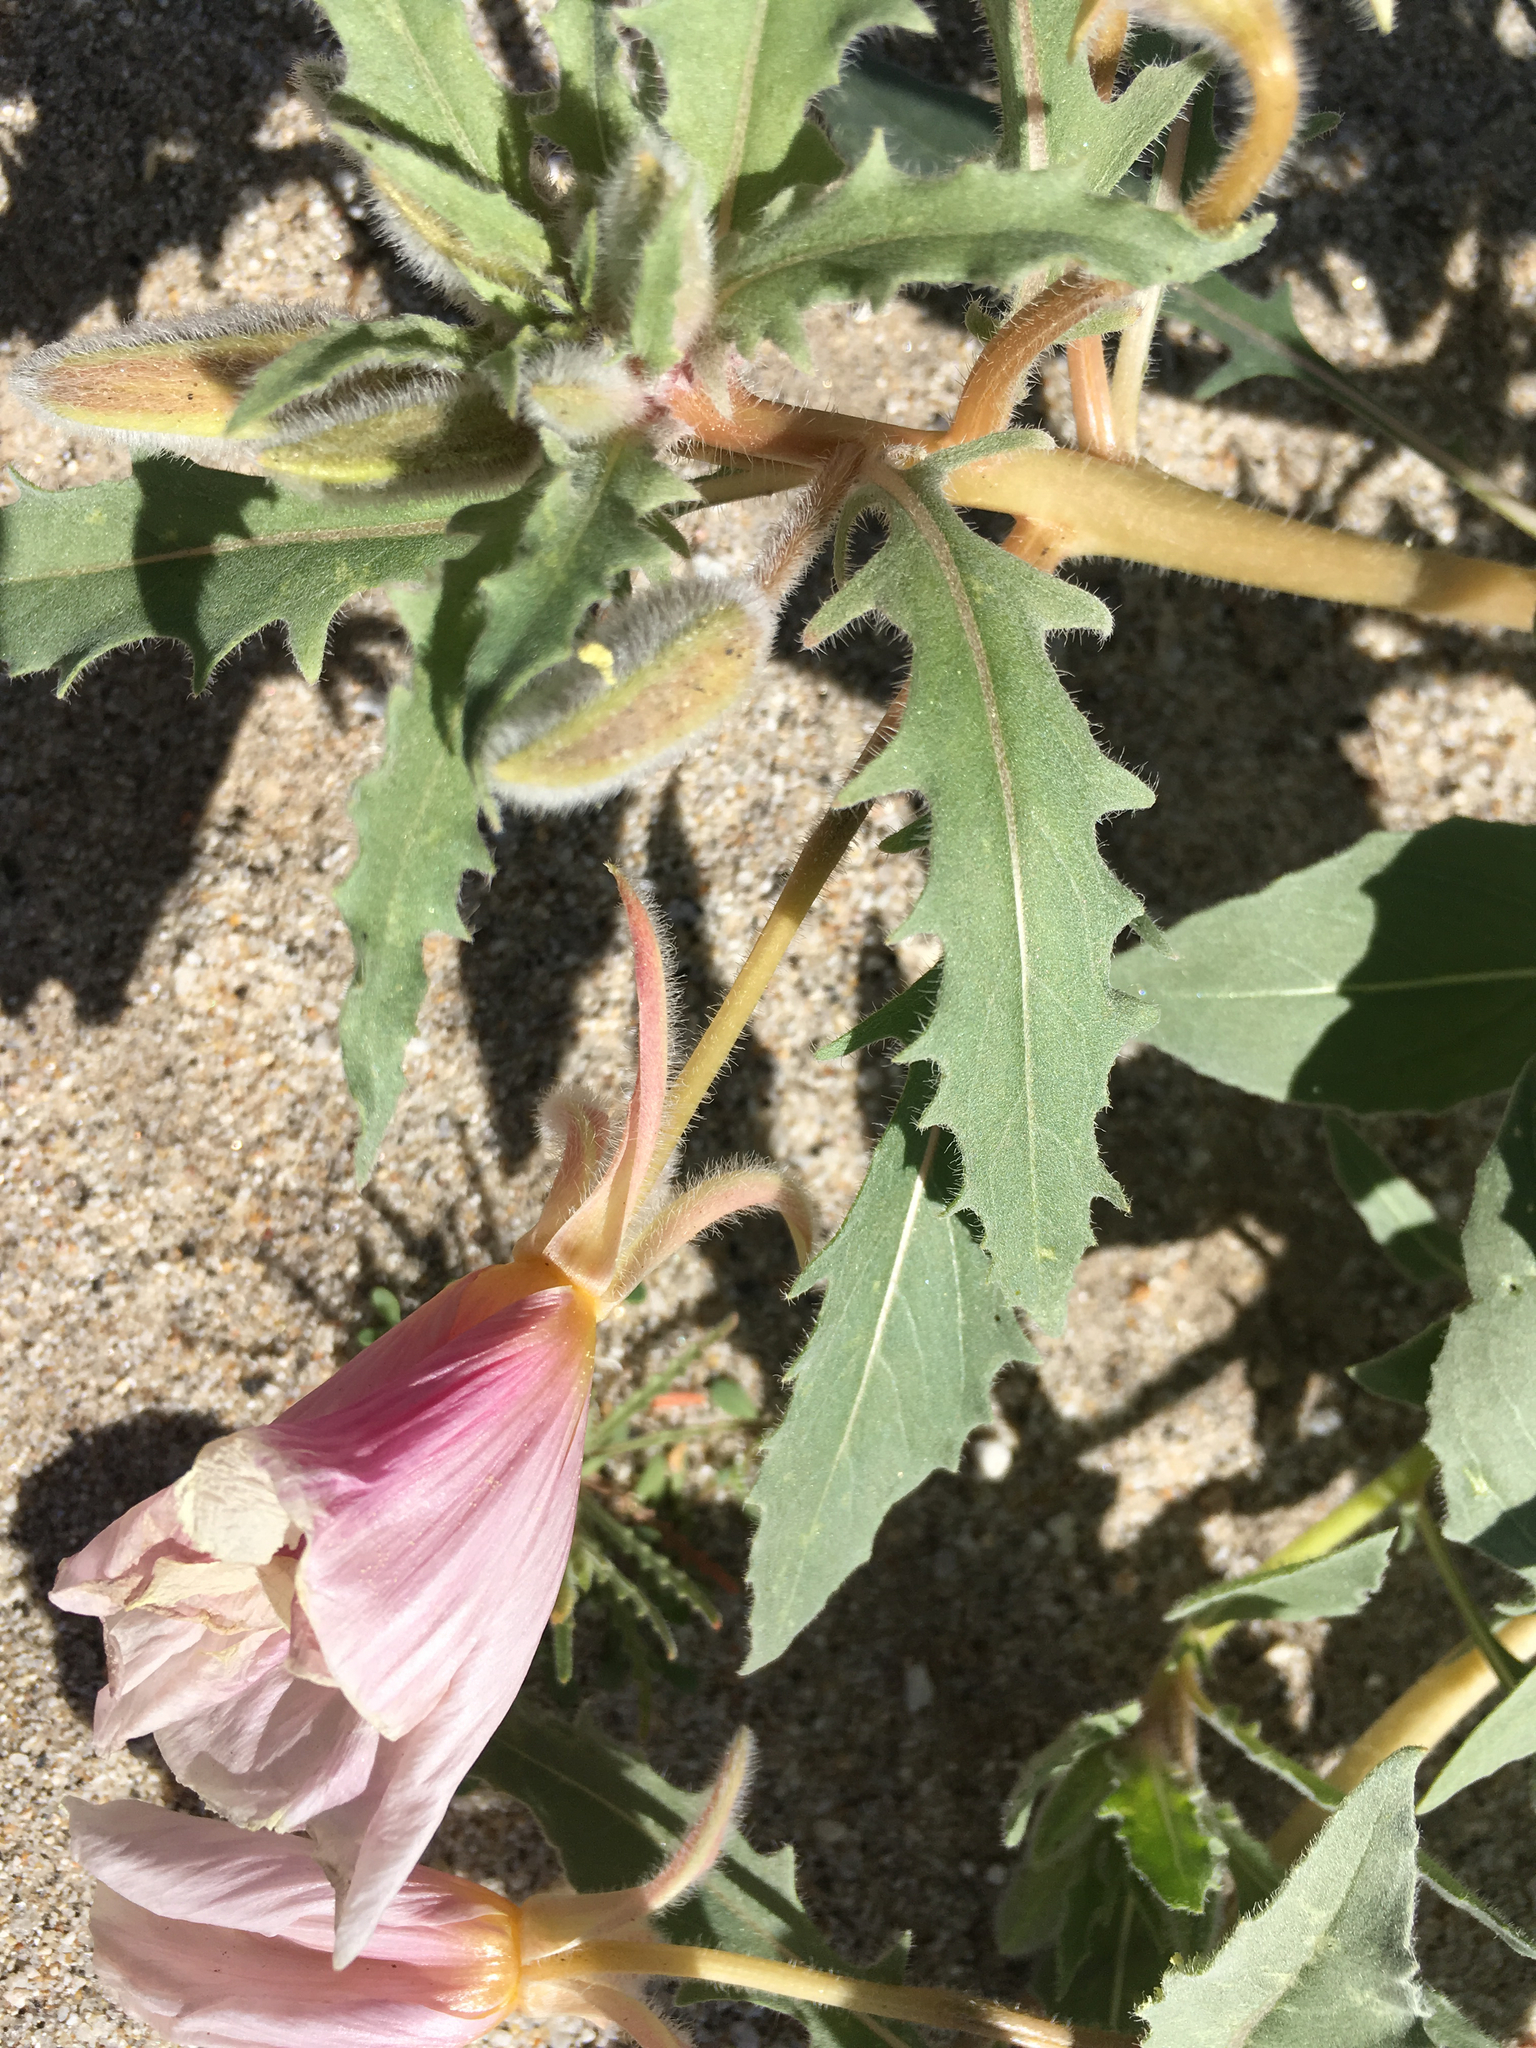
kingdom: Plantae
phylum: Tracheophyta
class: Magnoliopsida
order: Myrtales
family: Onagraceae
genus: Oenothera
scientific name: Oenothera deltoides
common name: Basket evening-primrose
